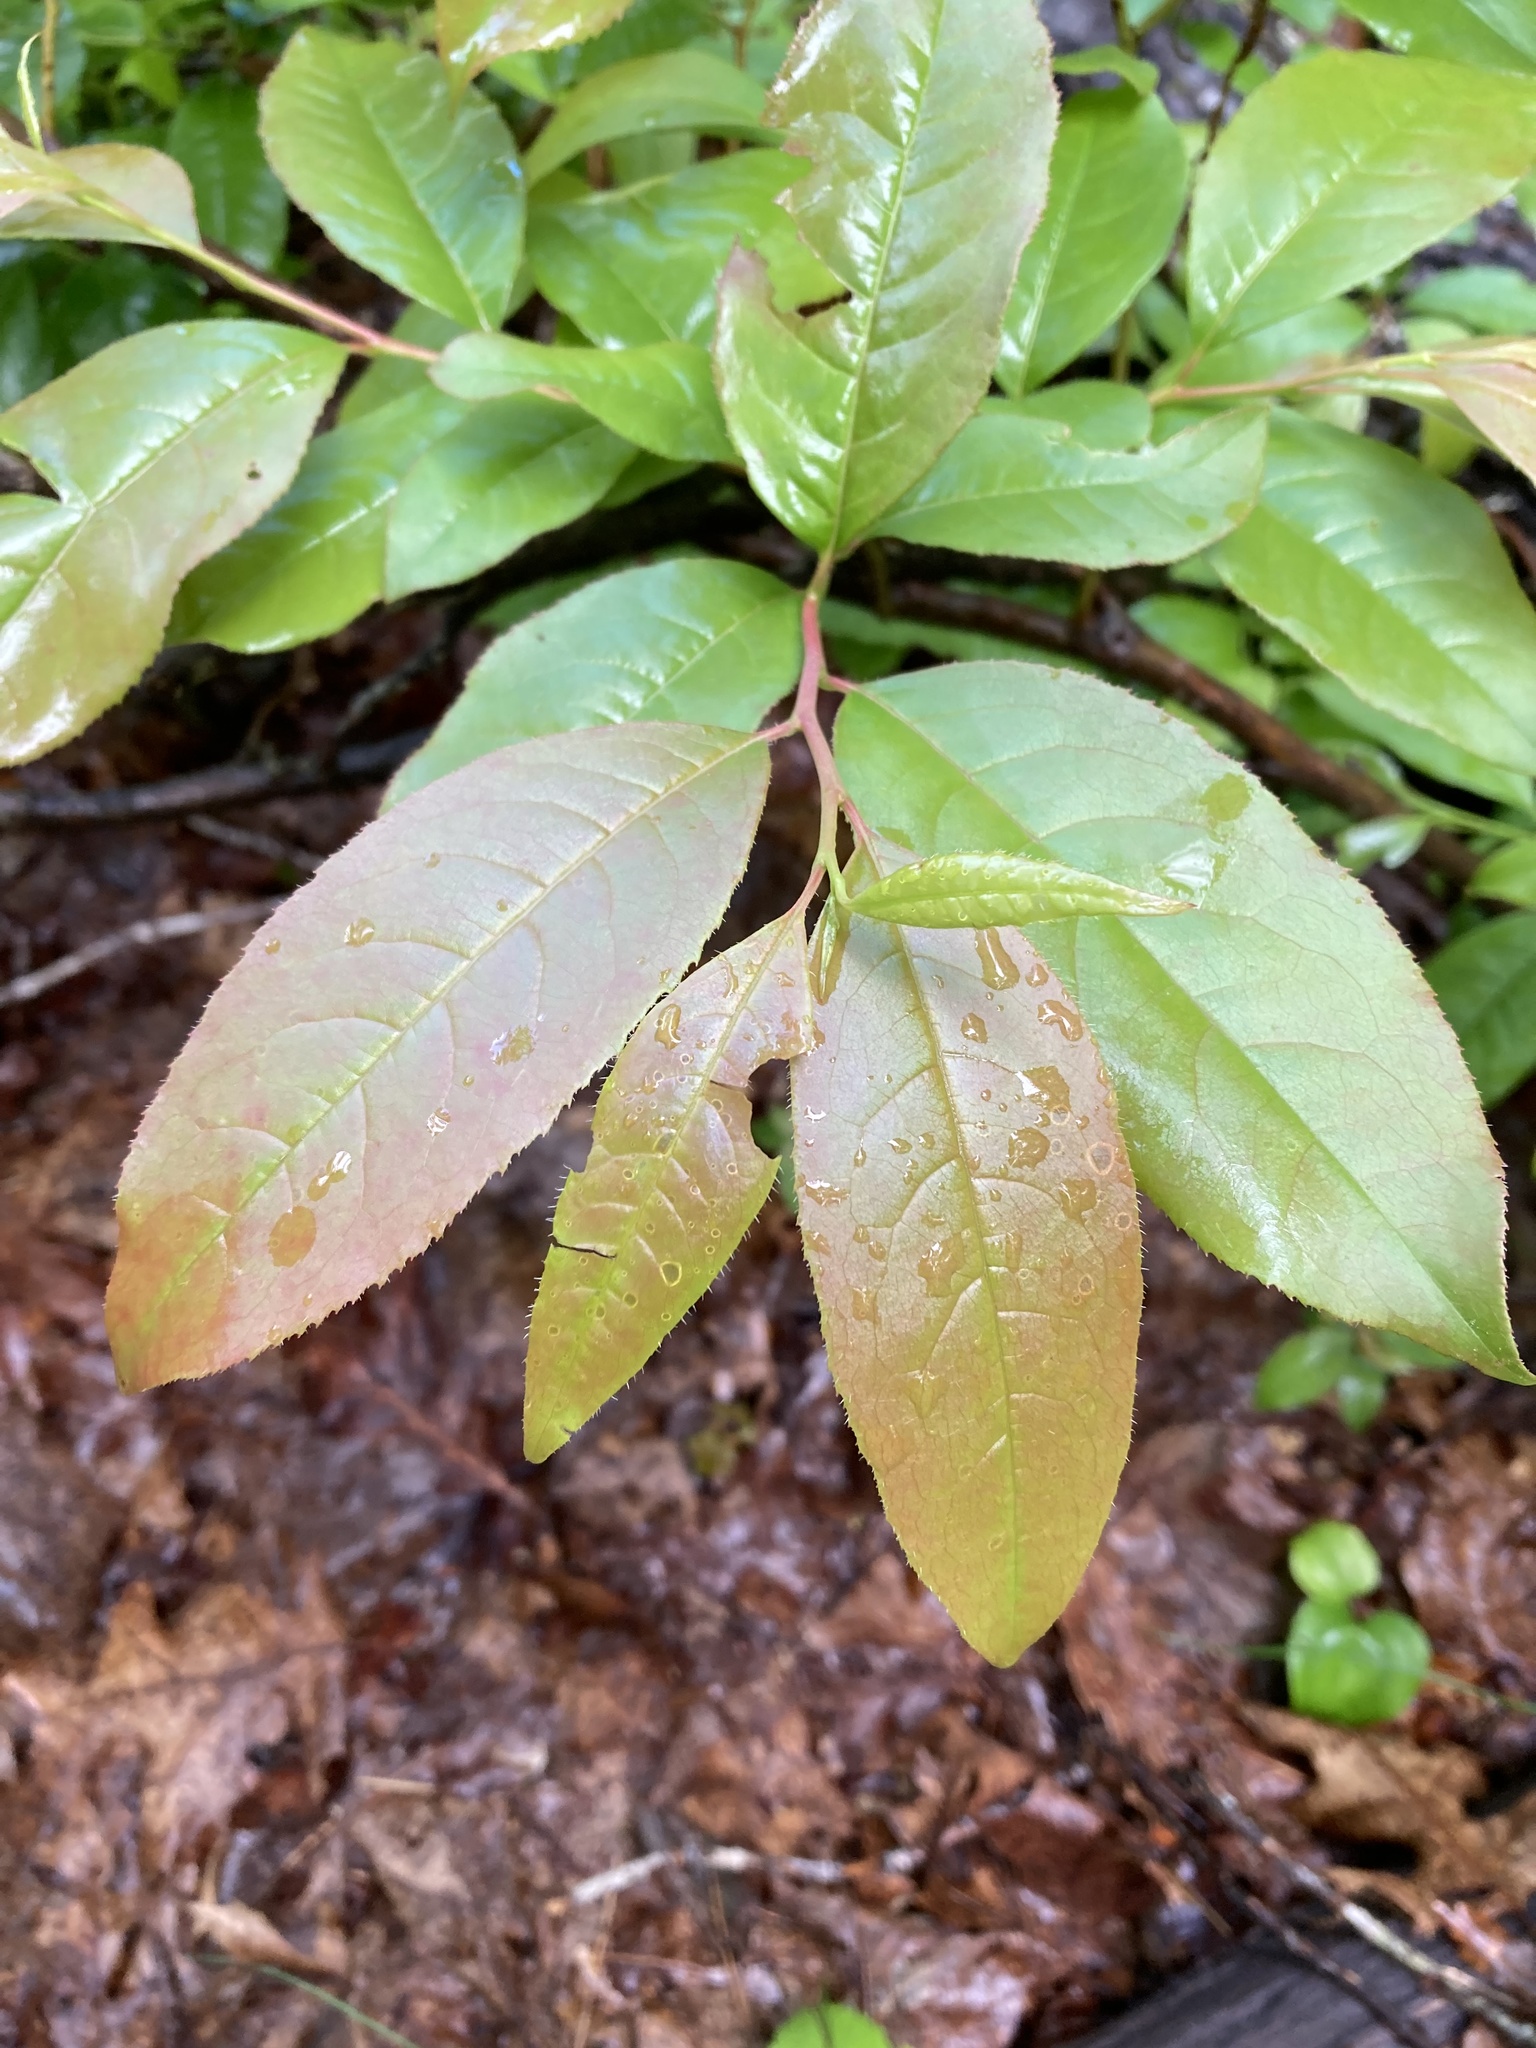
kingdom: Plantae
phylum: Tracheophyta
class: Magnoliopsida
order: Ericales
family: Ericaceae
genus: Oxydendrum
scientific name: Oxydendrum arboreum
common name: Sourwood
